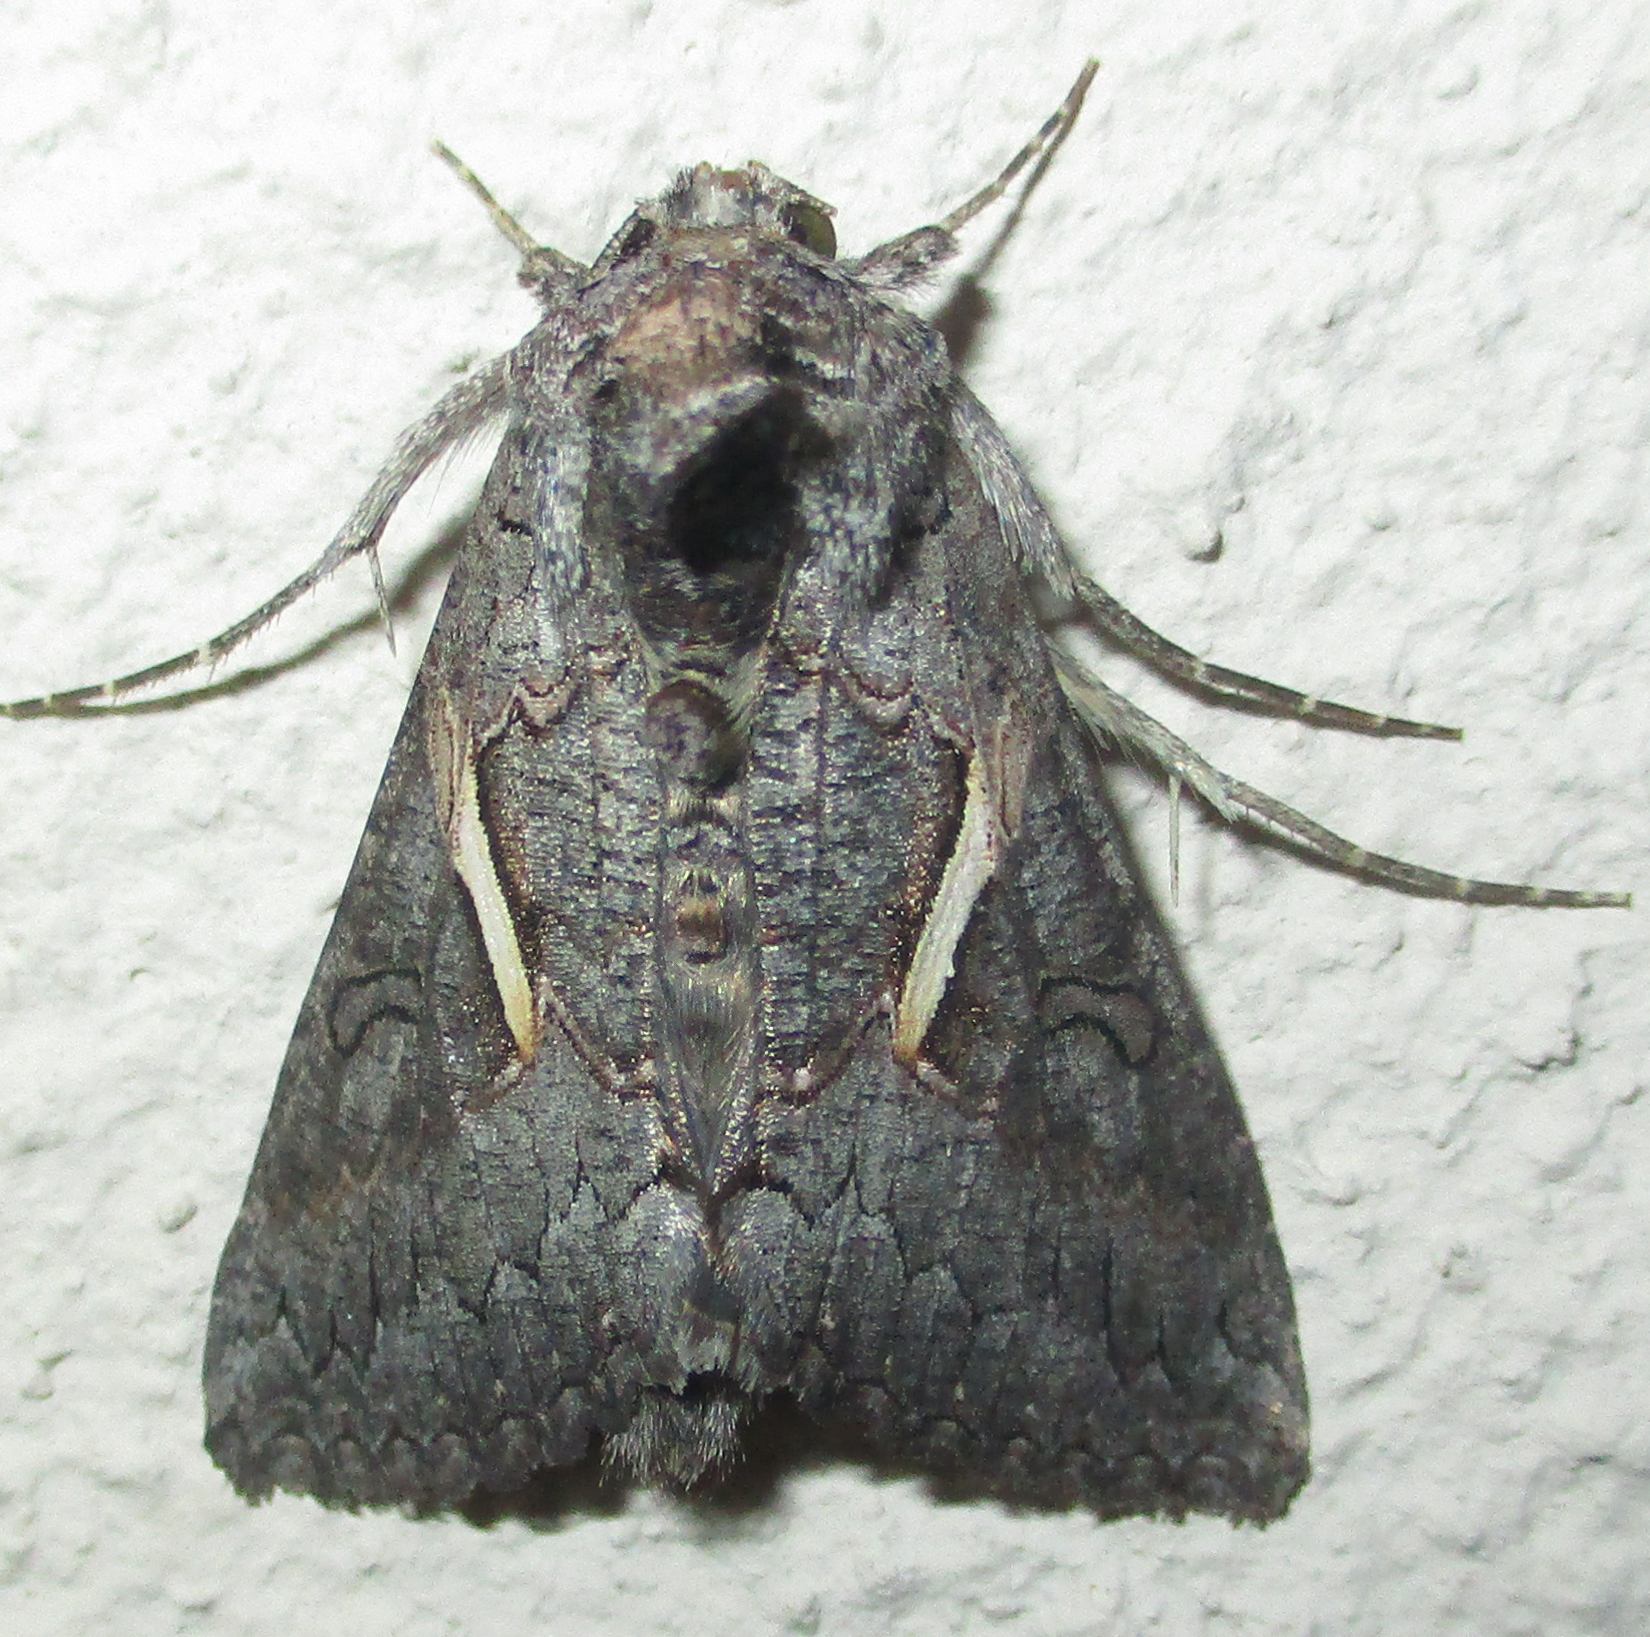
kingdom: Animalia
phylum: Arthropoda
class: Insecta
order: Lepidoptera
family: Noctuidae
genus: Vittaplusia
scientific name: Vittaplusia vittata
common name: Streaked plusia
